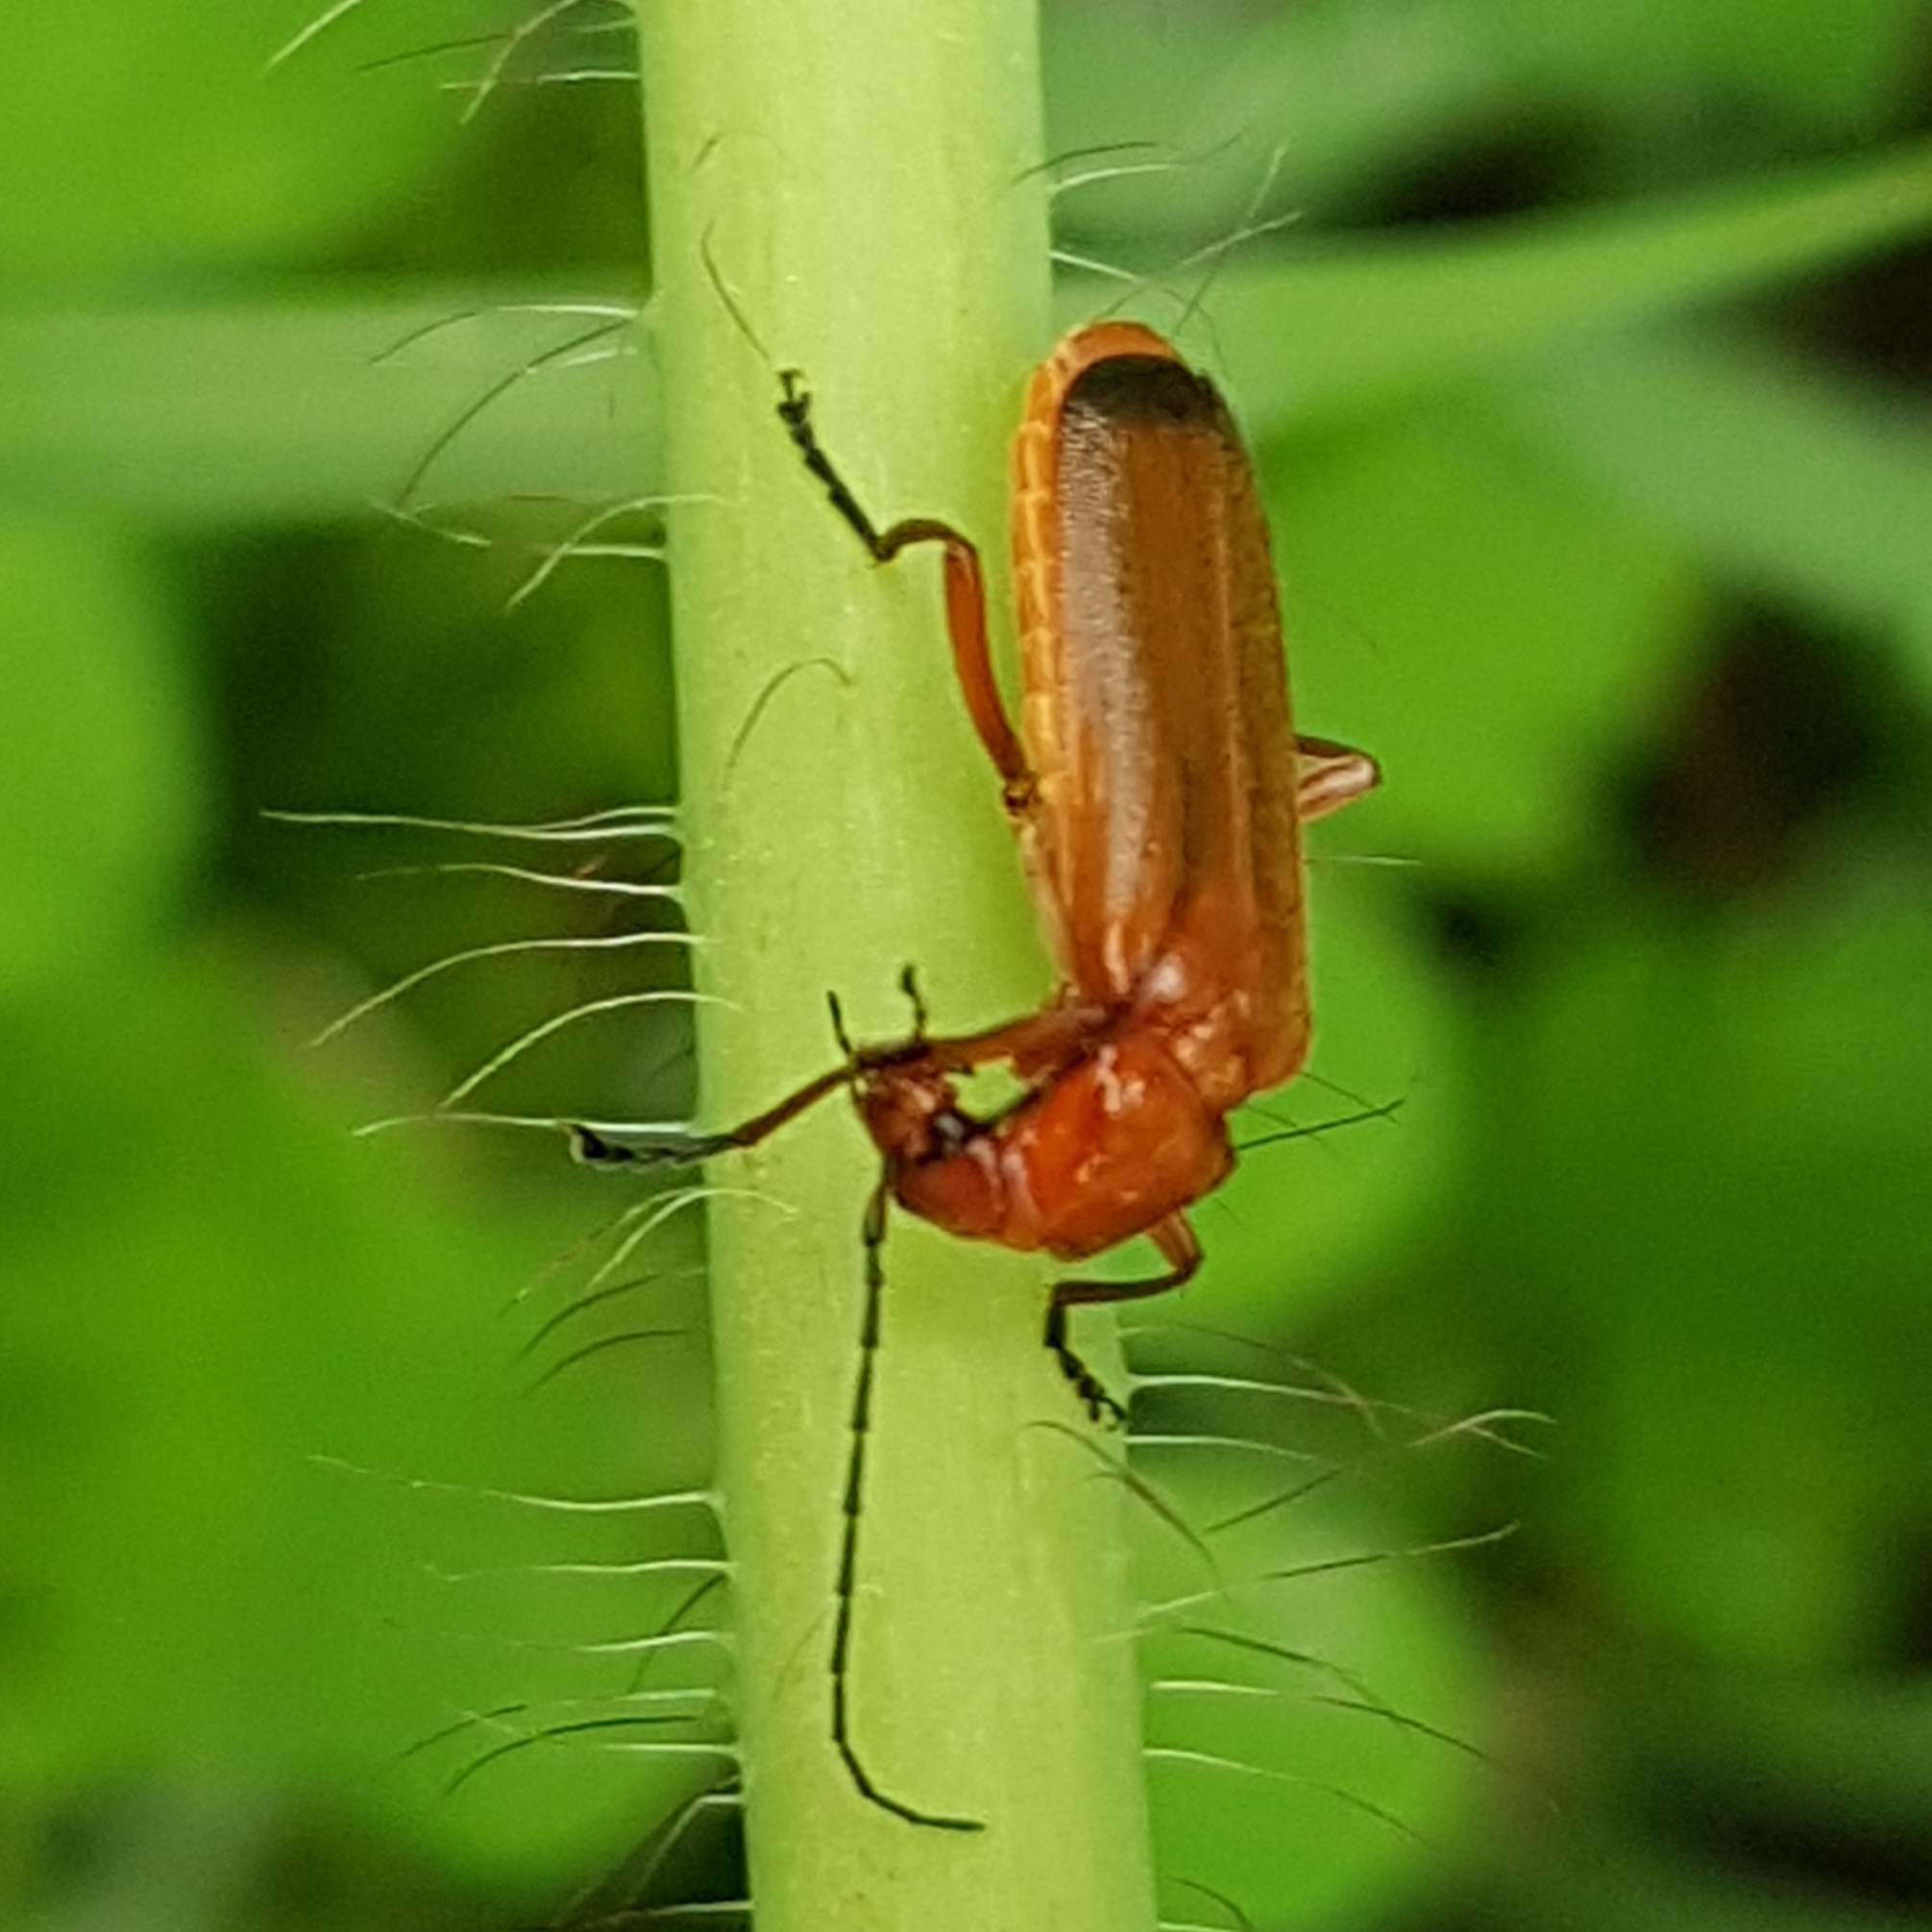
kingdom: Animalia
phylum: Arthropoda
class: Insecta
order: Coleoptera
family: Cantharidae
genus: Rhagonycha
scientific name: Rhagonycha fulva
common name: Common red soldier beetle
